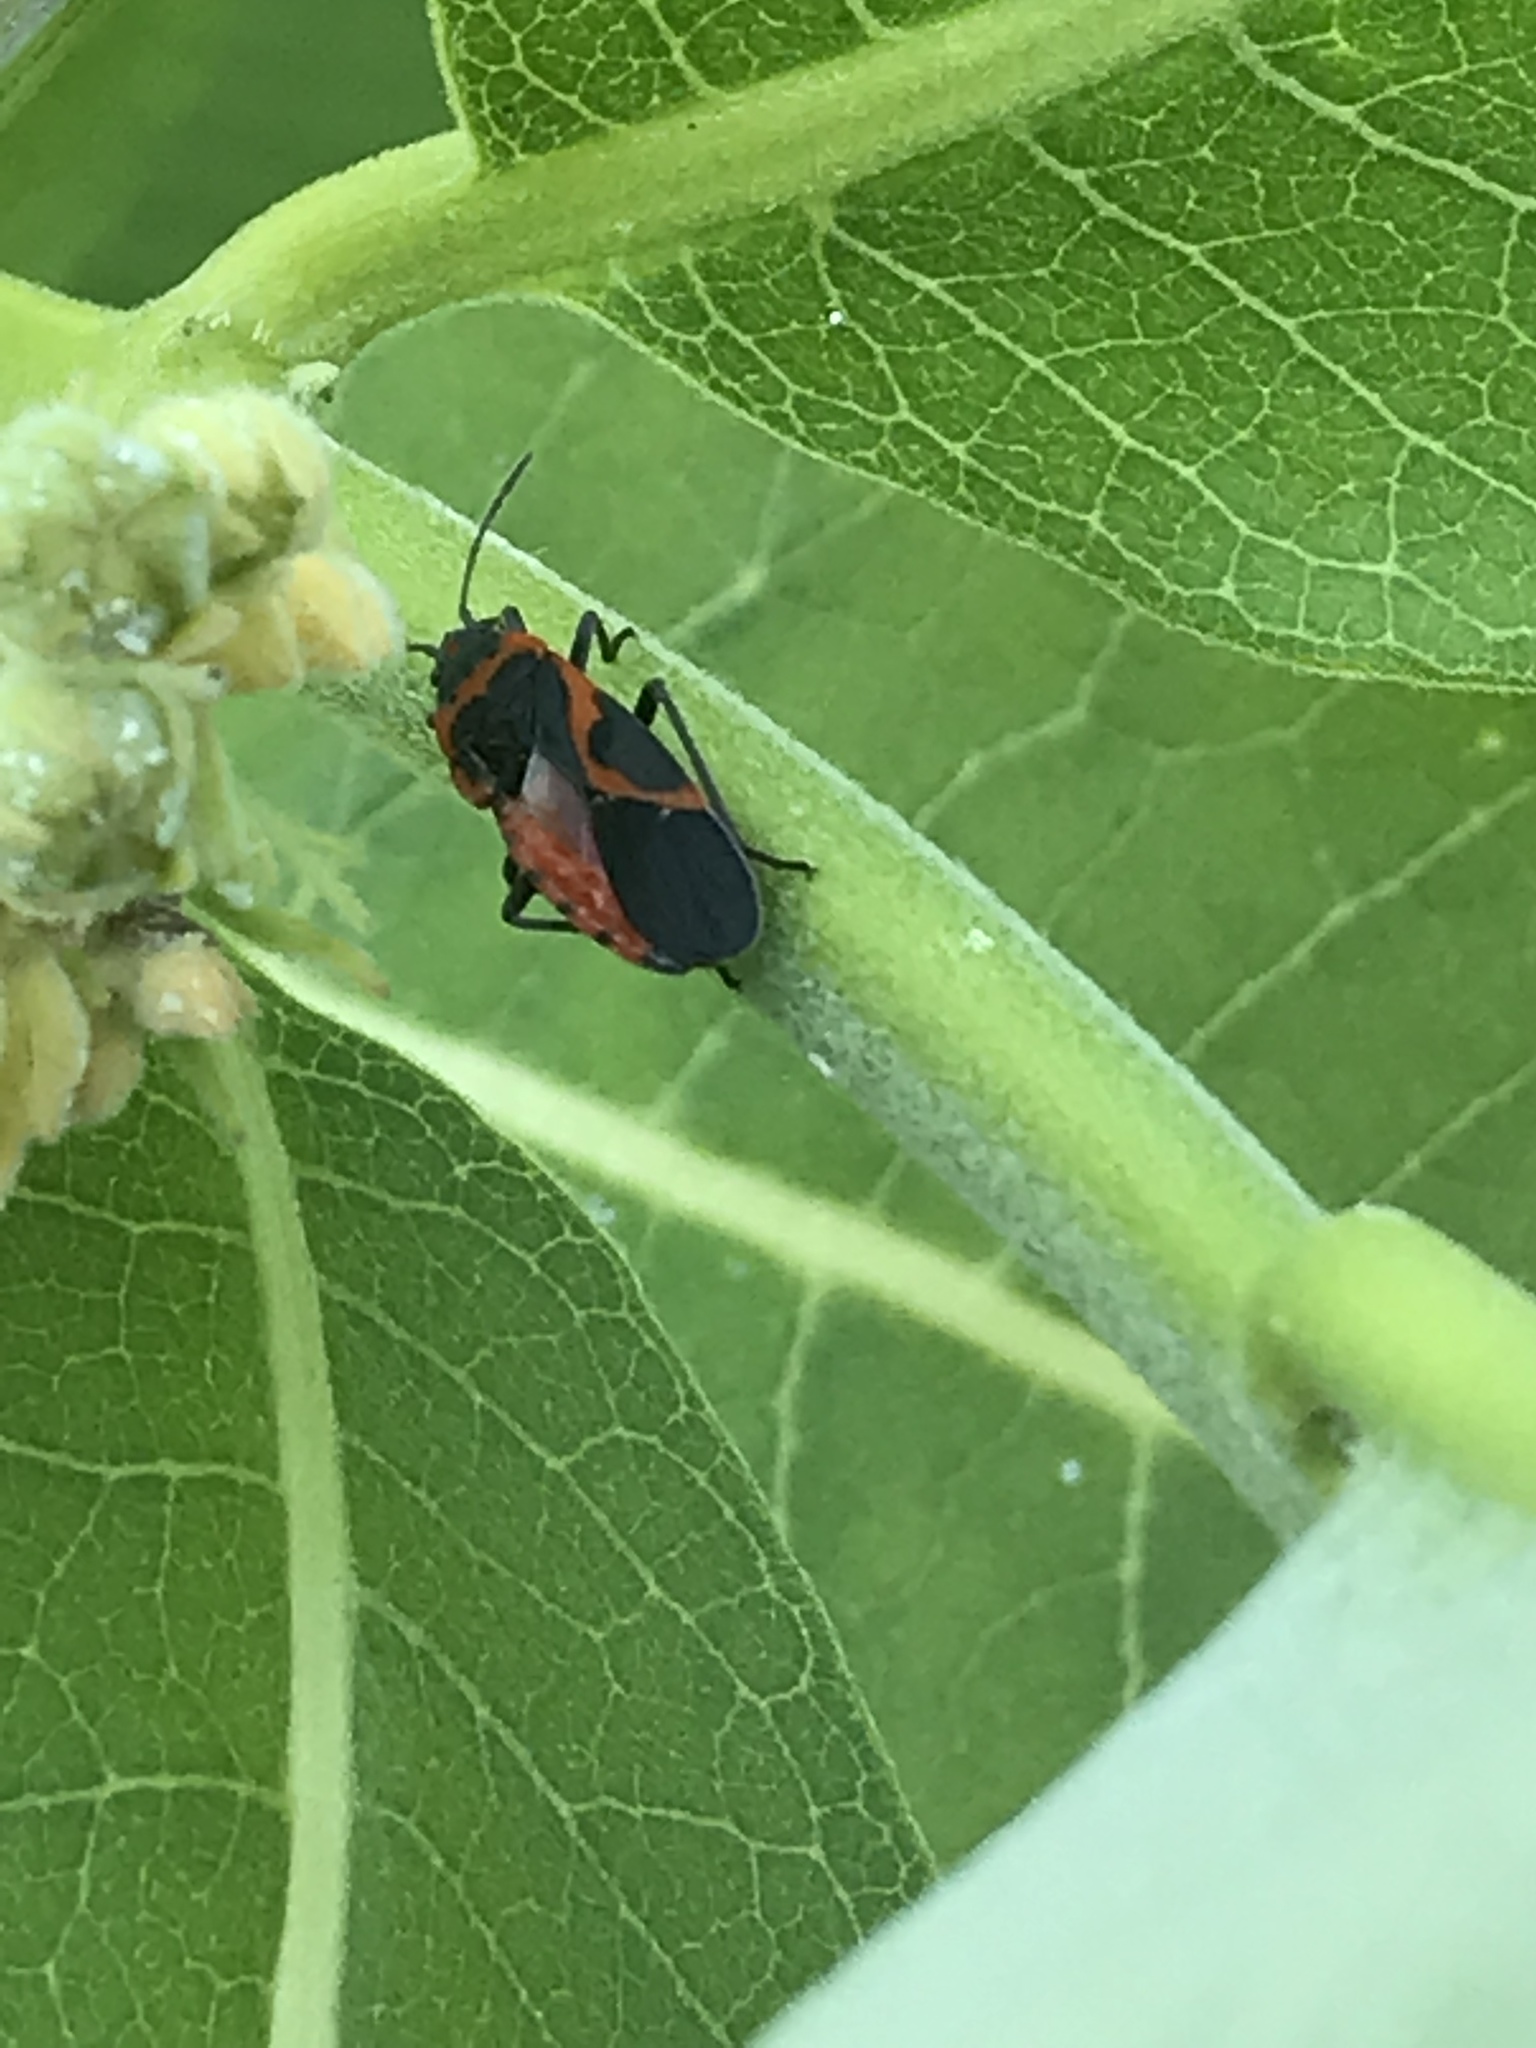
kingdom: Animalia
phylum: Arthropoda
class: Insecta
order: Hemiptera
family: Lygaeidae
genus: Lygaeus
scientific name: Lygaeus kalmii
